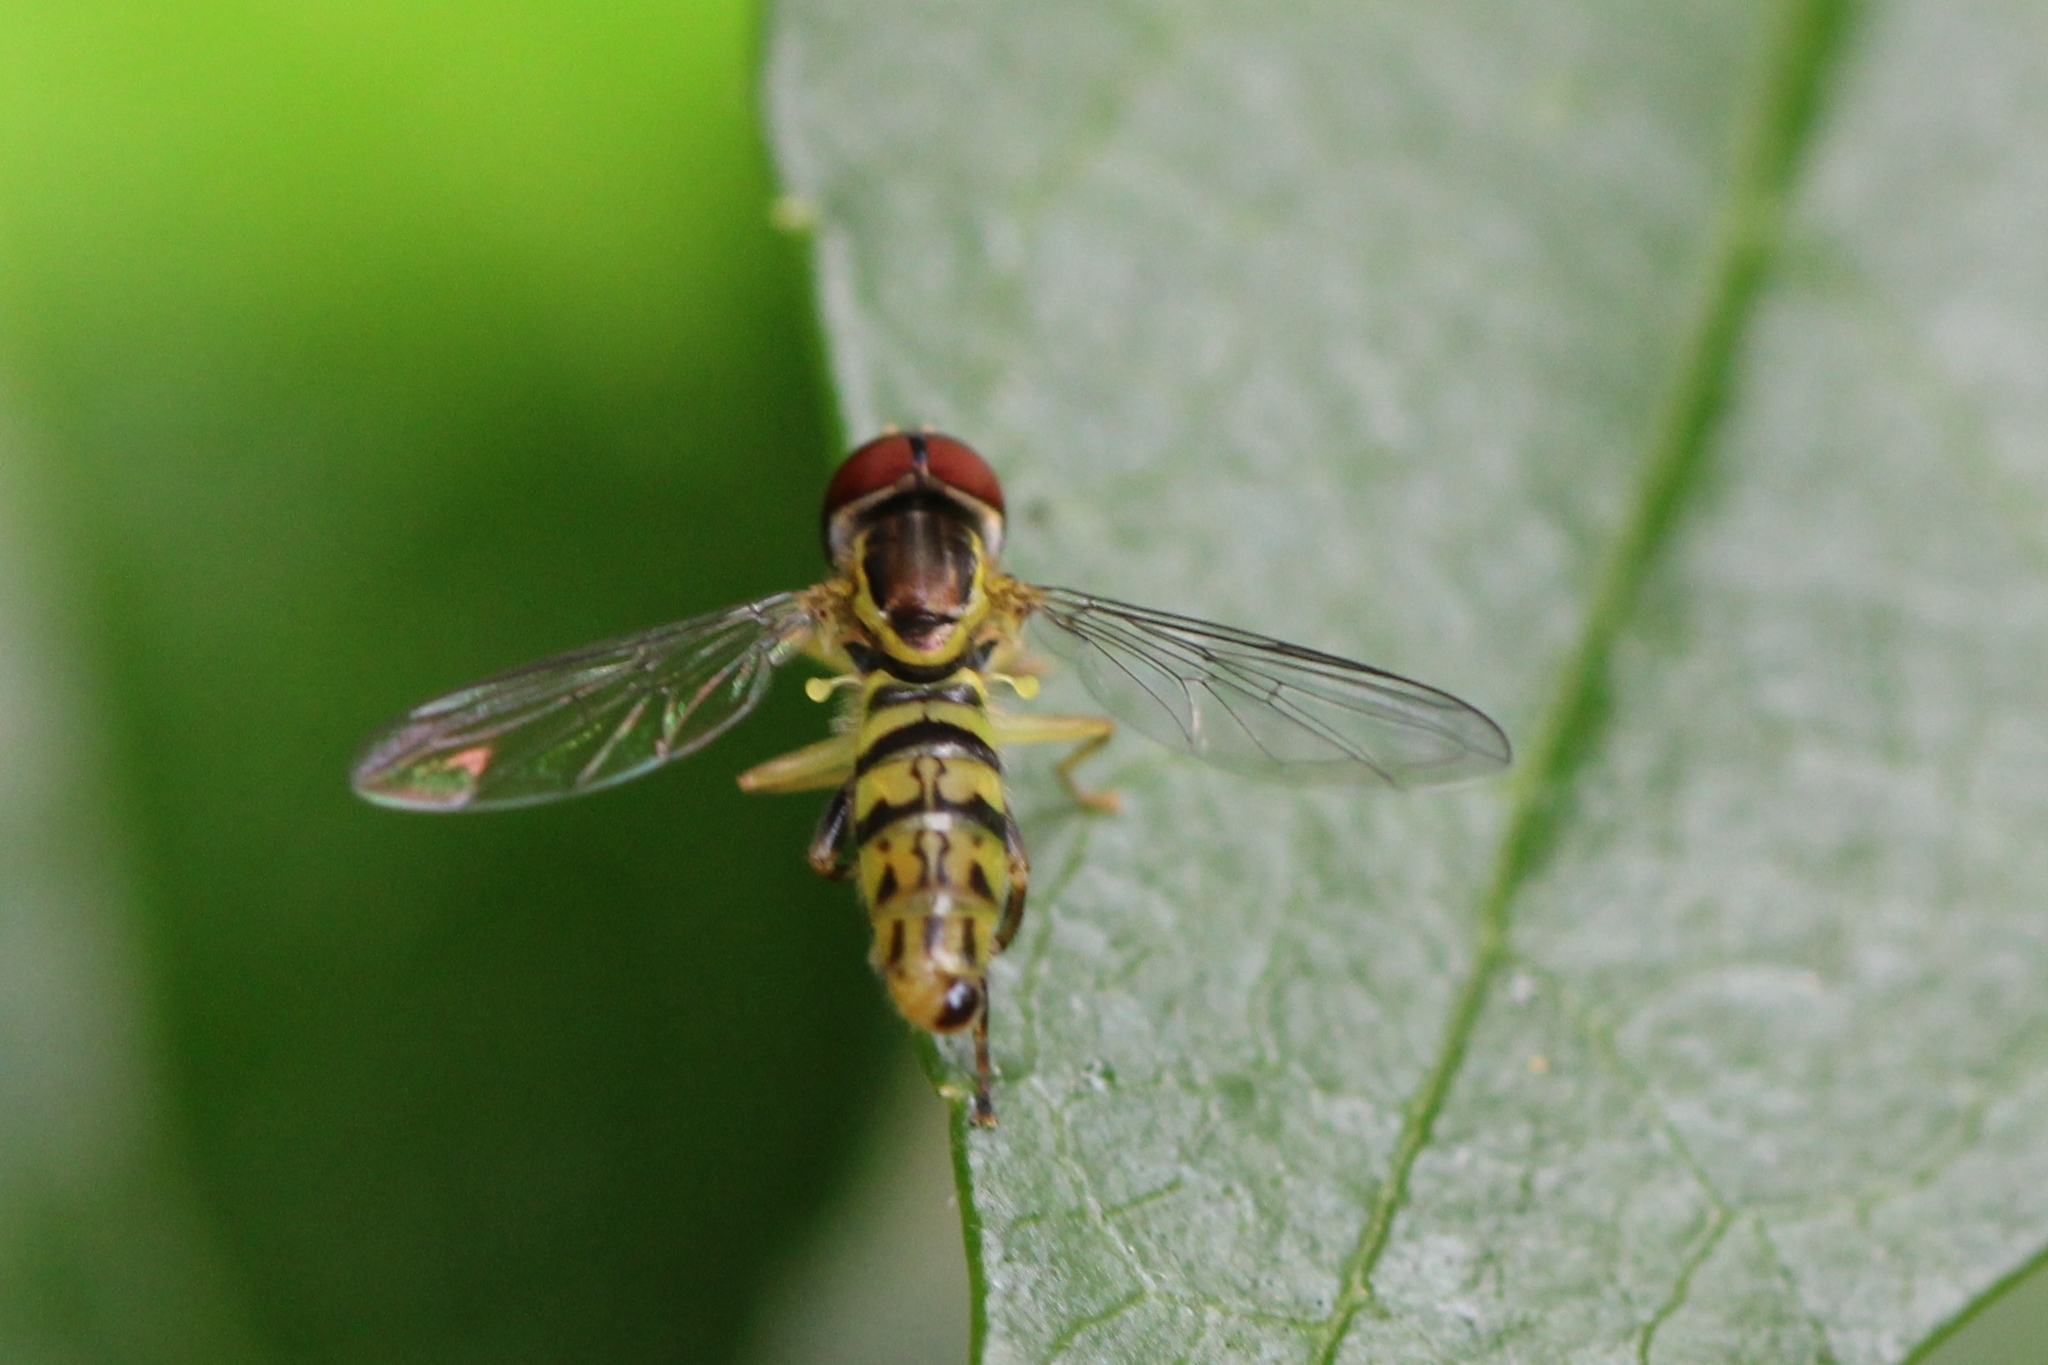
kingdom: Animalia
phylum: Arthropoda
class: Insecta
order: Diptera
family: Syrphidae
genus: Toxomerus
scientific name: Toxomerus geminatus
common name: Eastern calligrapher
